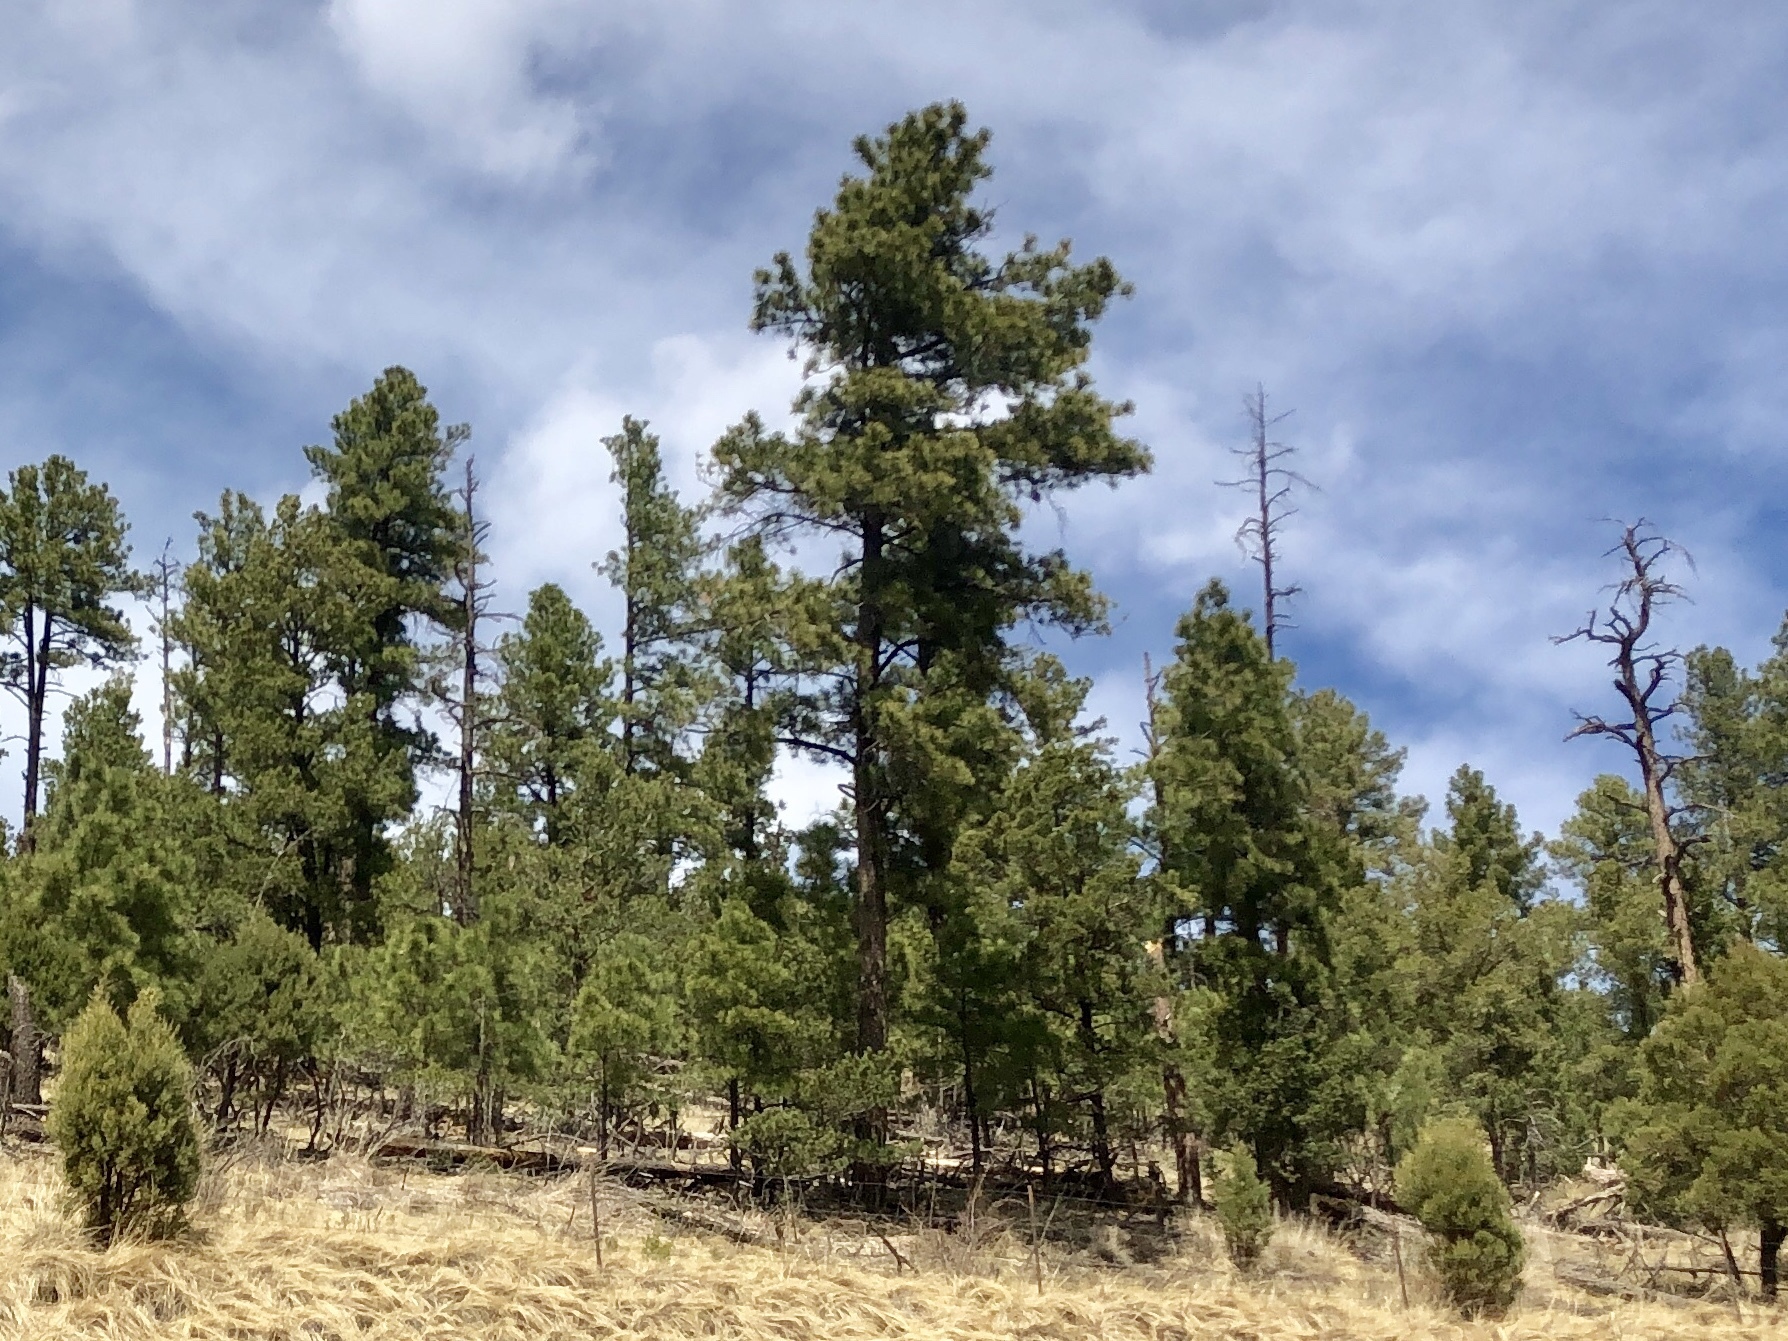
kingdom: Plantae
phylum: Tracheophyta
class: Pinopsida
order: Pinales
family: Pinaceae
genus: Pinus
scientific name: Pinus ponderosa
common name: Western yellow-pine
